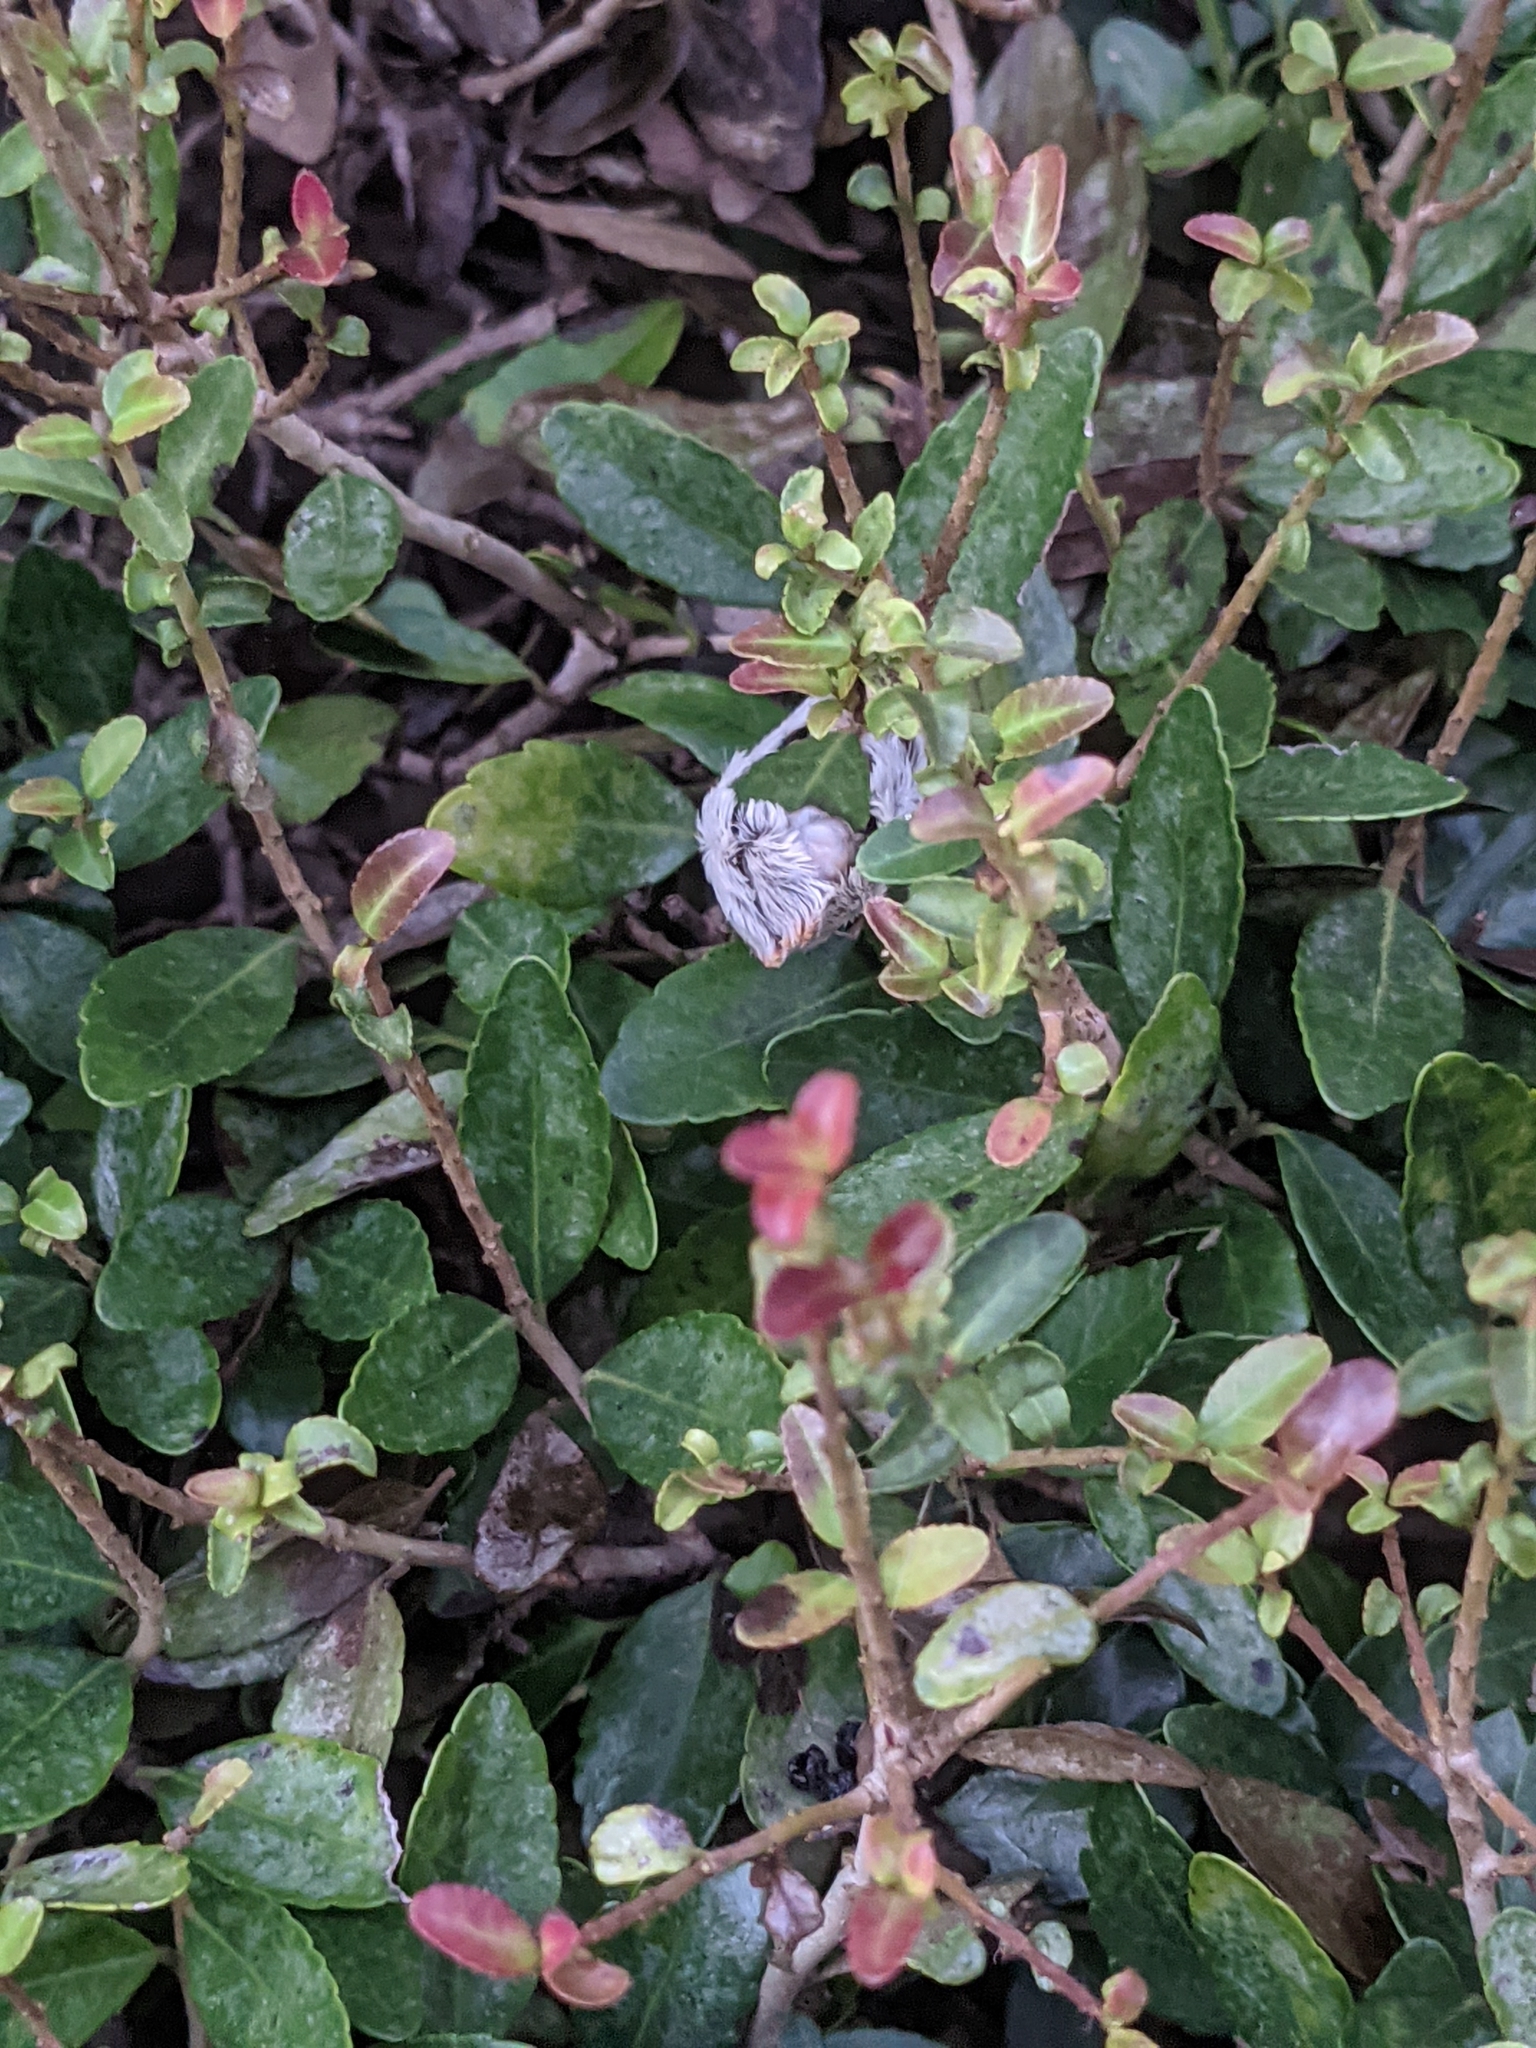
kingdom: Animalia
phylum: Arthropoda
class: Insecta
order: Lepidoptera
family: Megalopygidae
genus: Megalopyge
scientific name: Megalopyge opercularis
